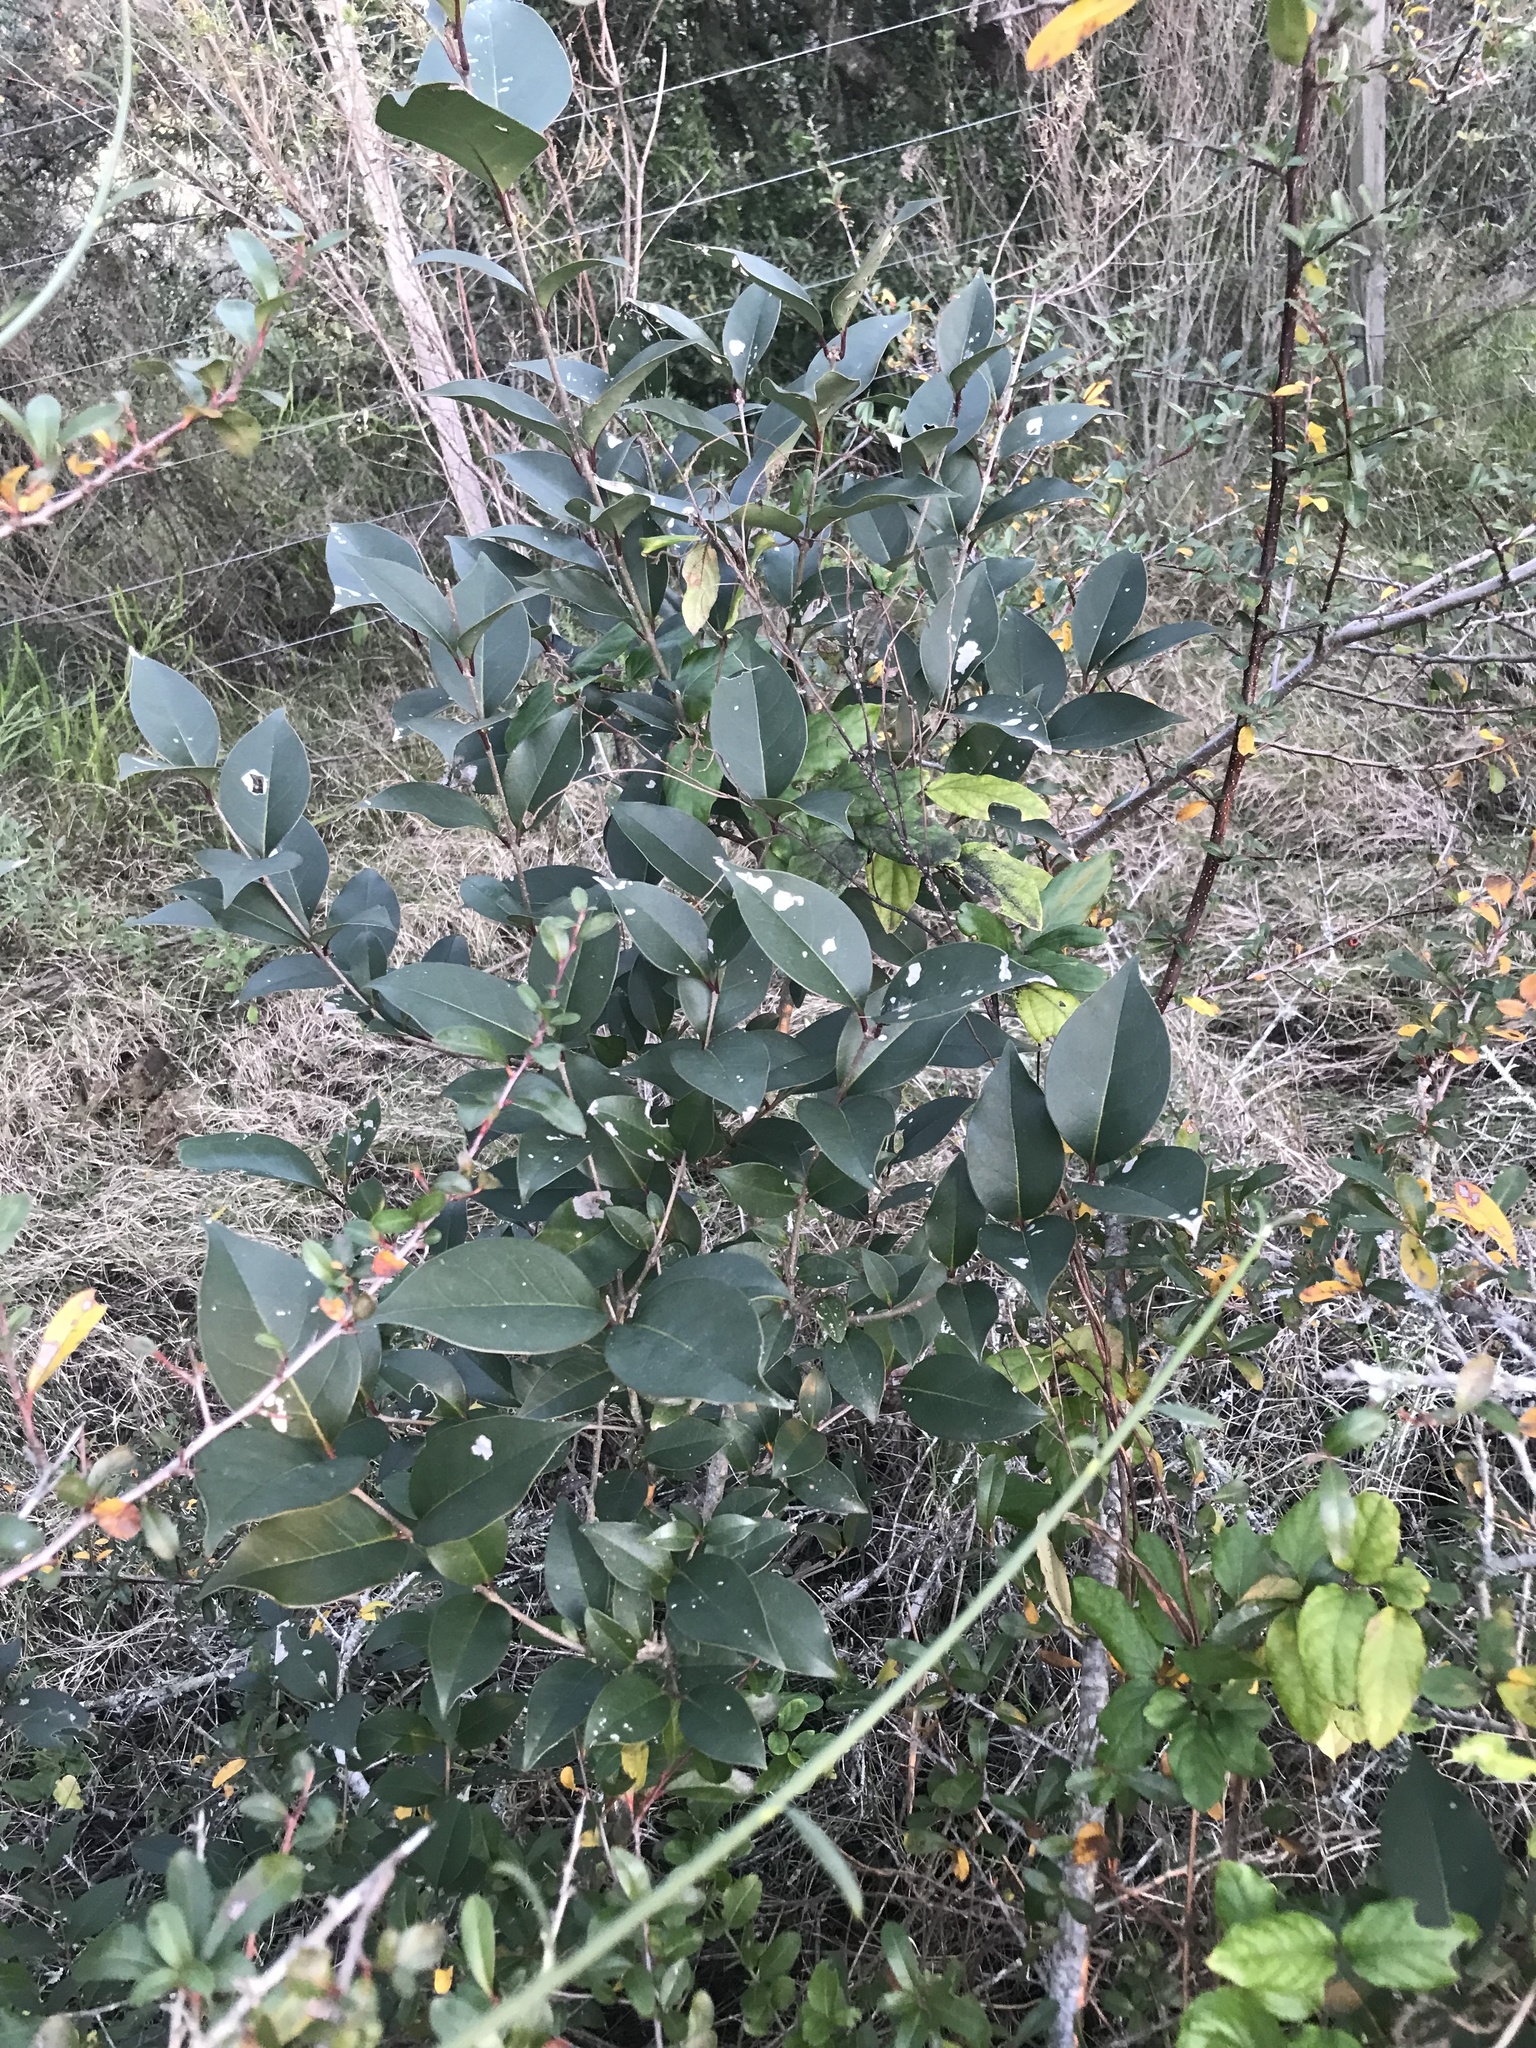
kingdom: Plantae
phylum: Tracheophyta
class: Magnoliopsida
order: Lamiales
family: Oleaceae
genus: Ligustrum
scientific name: Ligustrum lucidum
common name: Glossy privet
